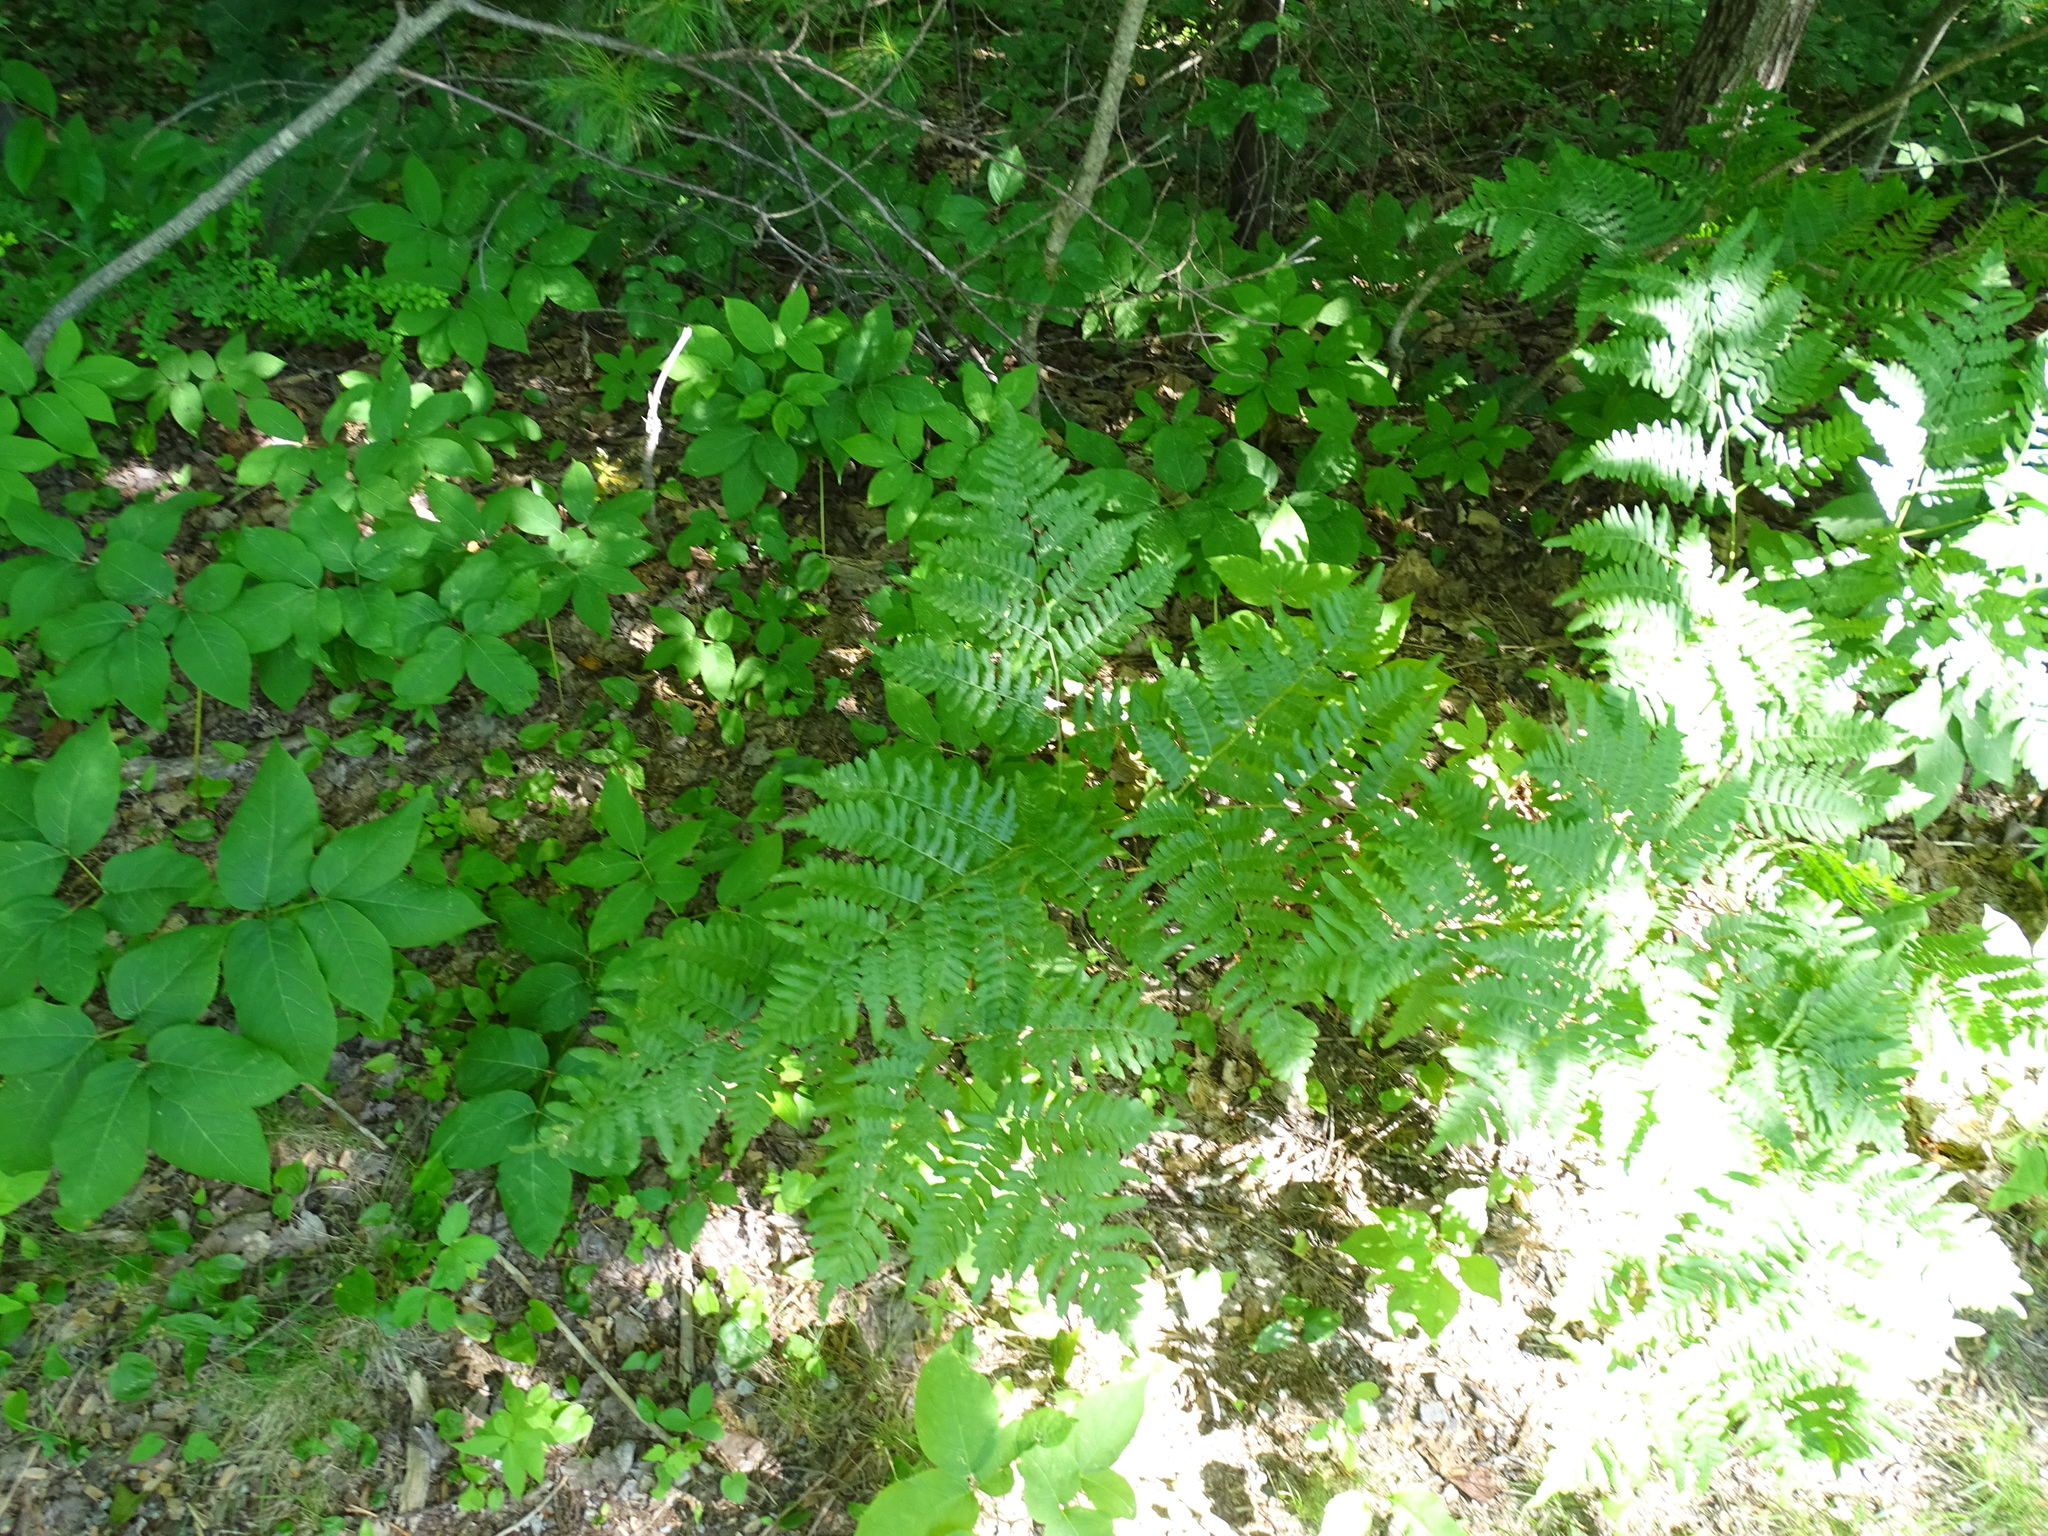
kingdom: Plantae
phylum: Tracheophyta
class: Polypodiopsida
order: Polypodiales
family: Dennstaedtiaceae
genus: Pteridium
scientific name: Pteridium aquilinum
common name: Bracken
